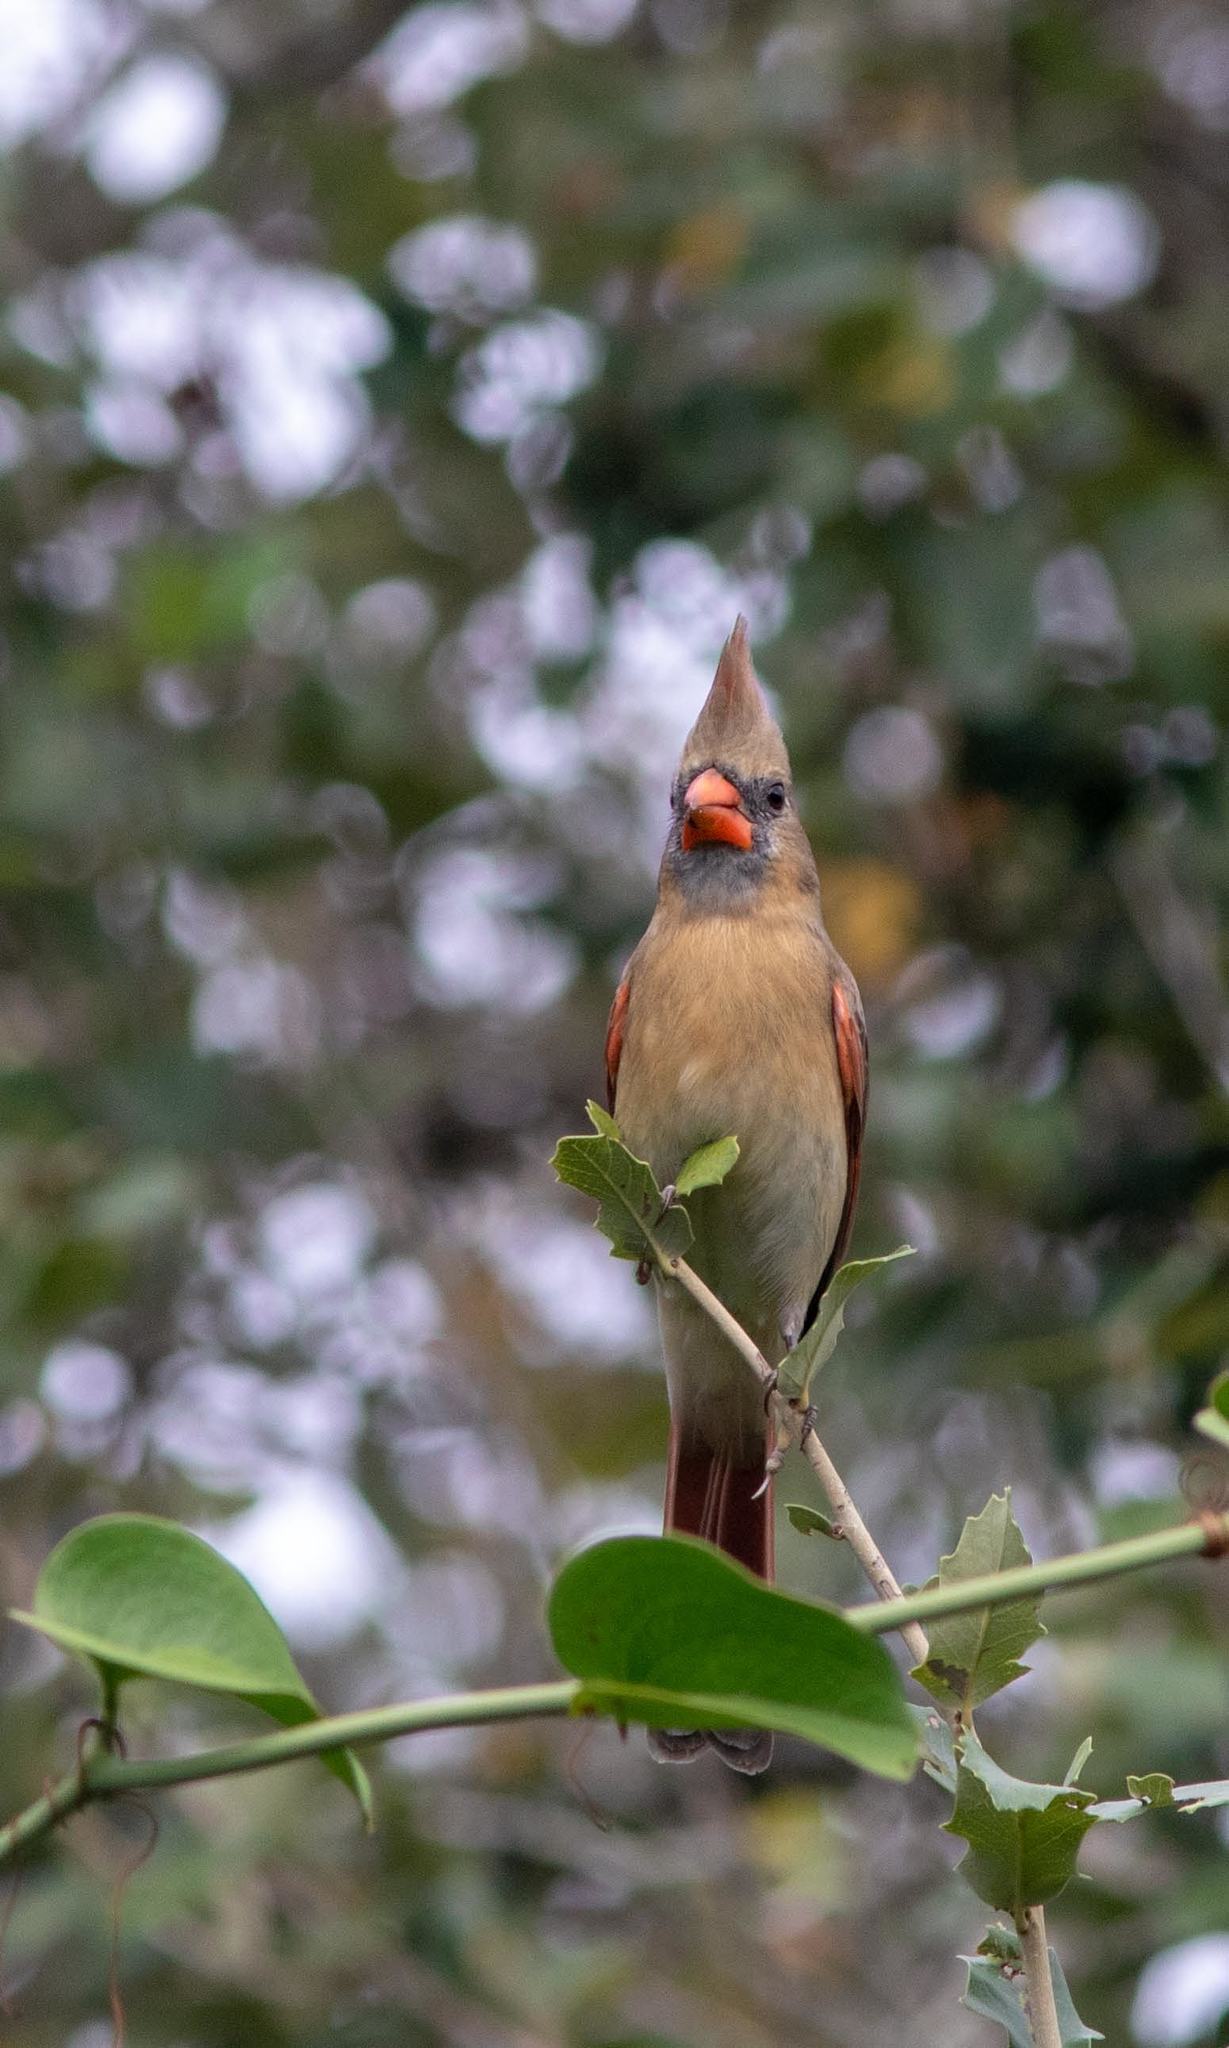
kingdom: Animalia
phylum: Chordata
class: Aves
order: Passeriformes
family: Cardinalidae
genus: Cardinalis
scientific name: Cardinalis cardinalis
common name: Northern cardinal
